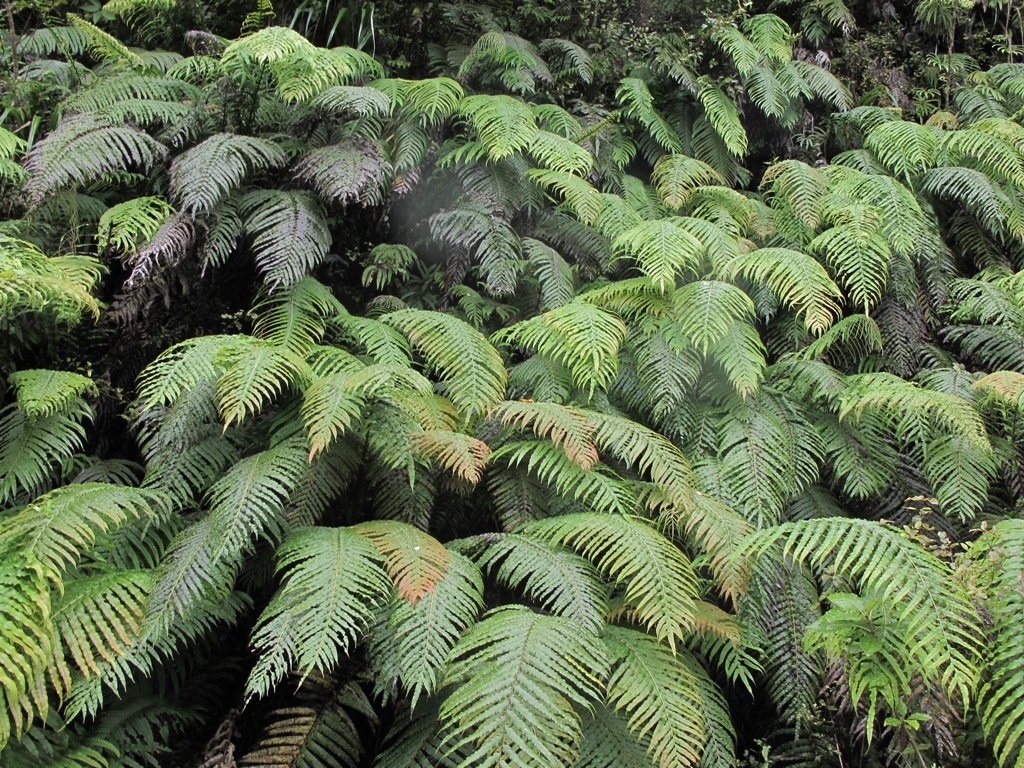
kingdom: Plantae
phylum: Tracheophyta
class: Polypodiopsida
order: Polypodiales
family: Blechnaceae
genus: Parablechnum
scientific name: Parablechnum novae-zelandiae
